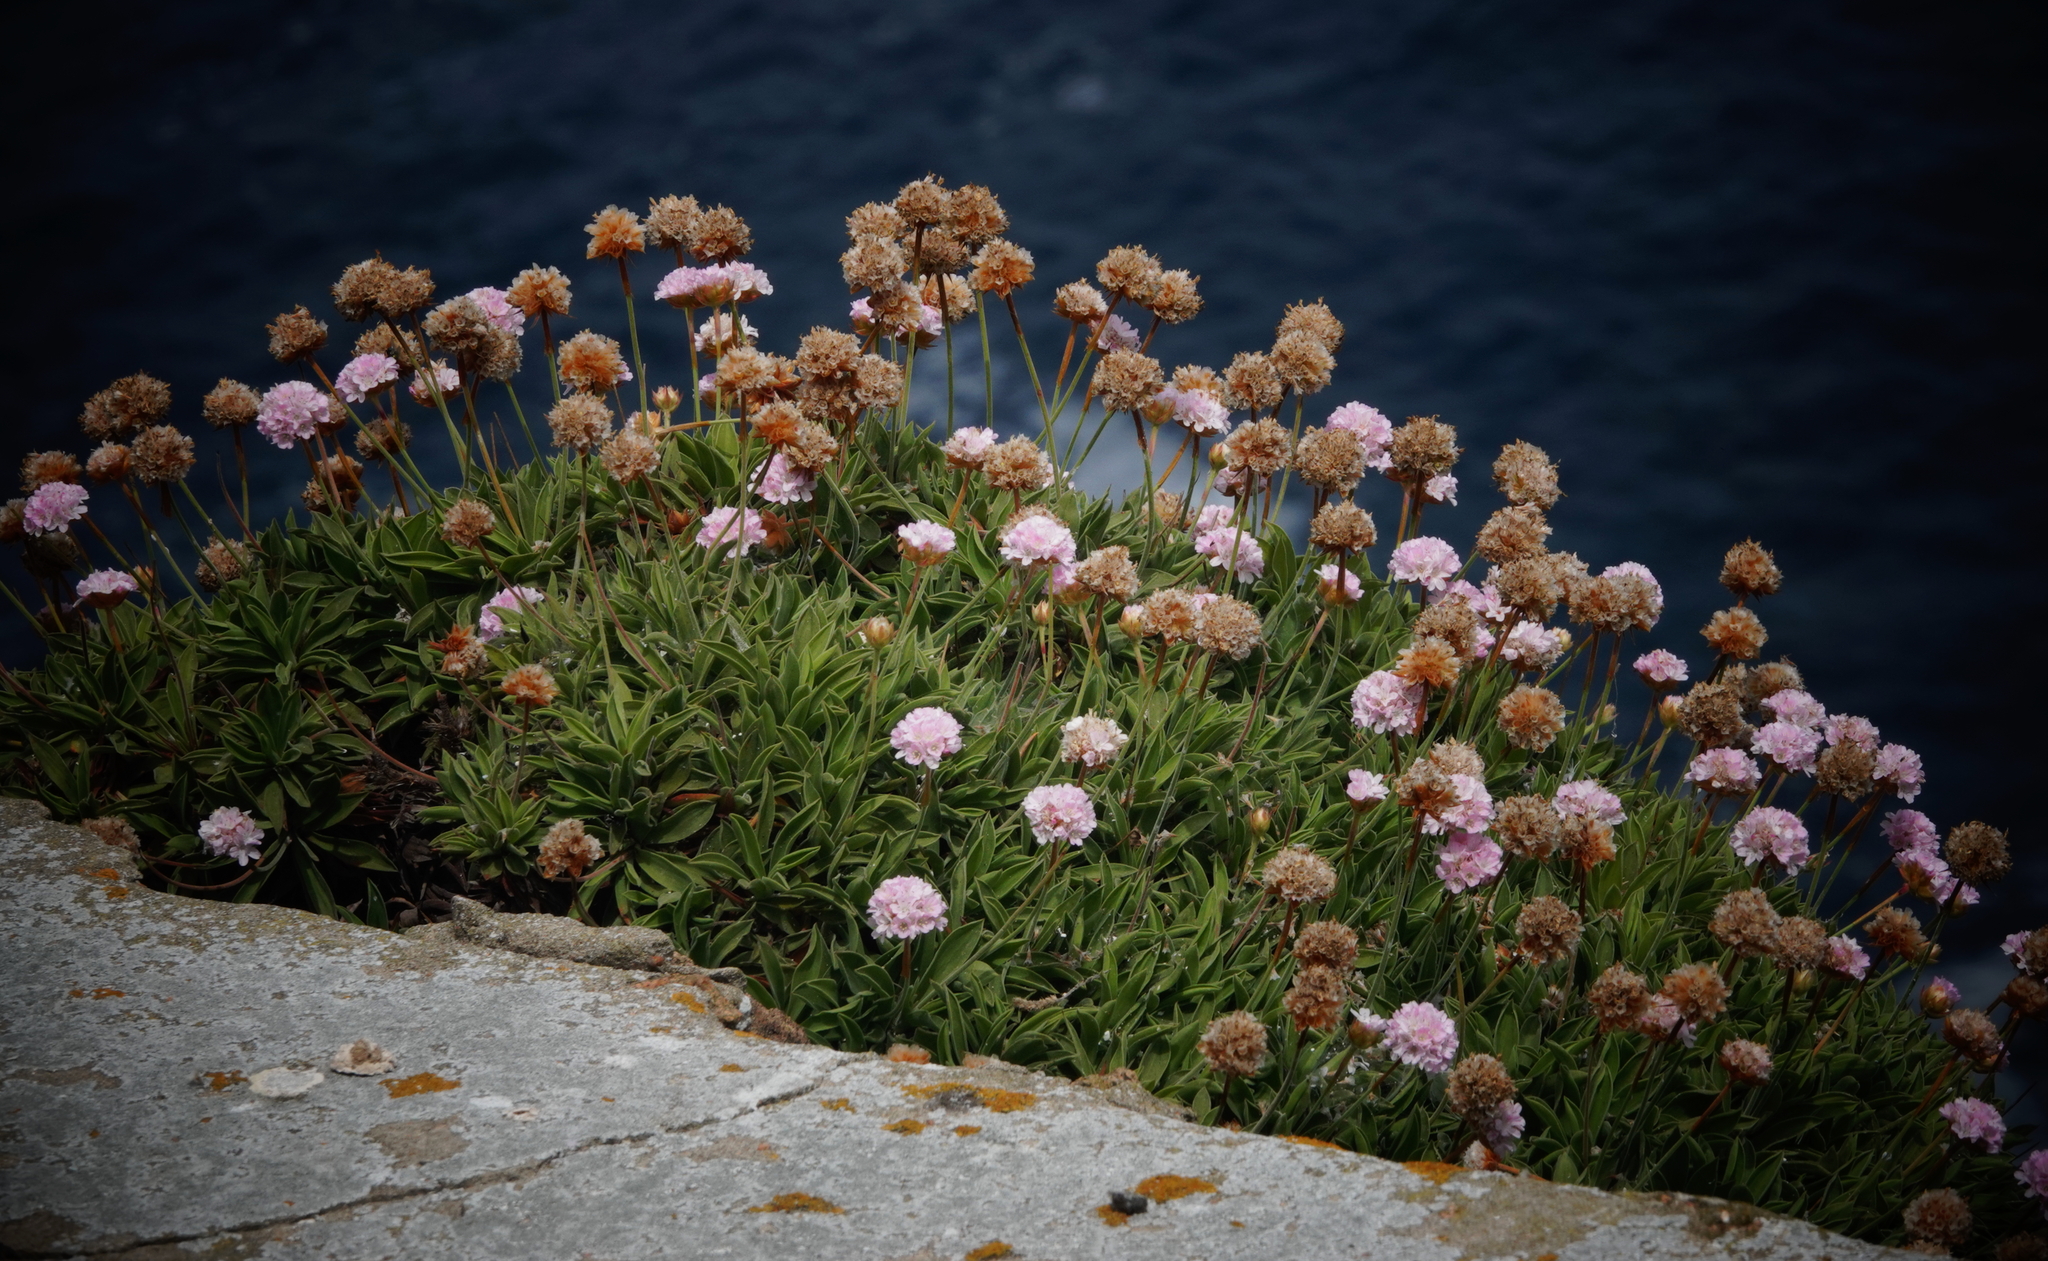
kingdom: Plantae
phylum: Tracheophyta
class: Magnoliopsida
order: Caryophyllales
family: Plumbaginaceae
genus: Armeria
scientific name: Armeria berlengensis
